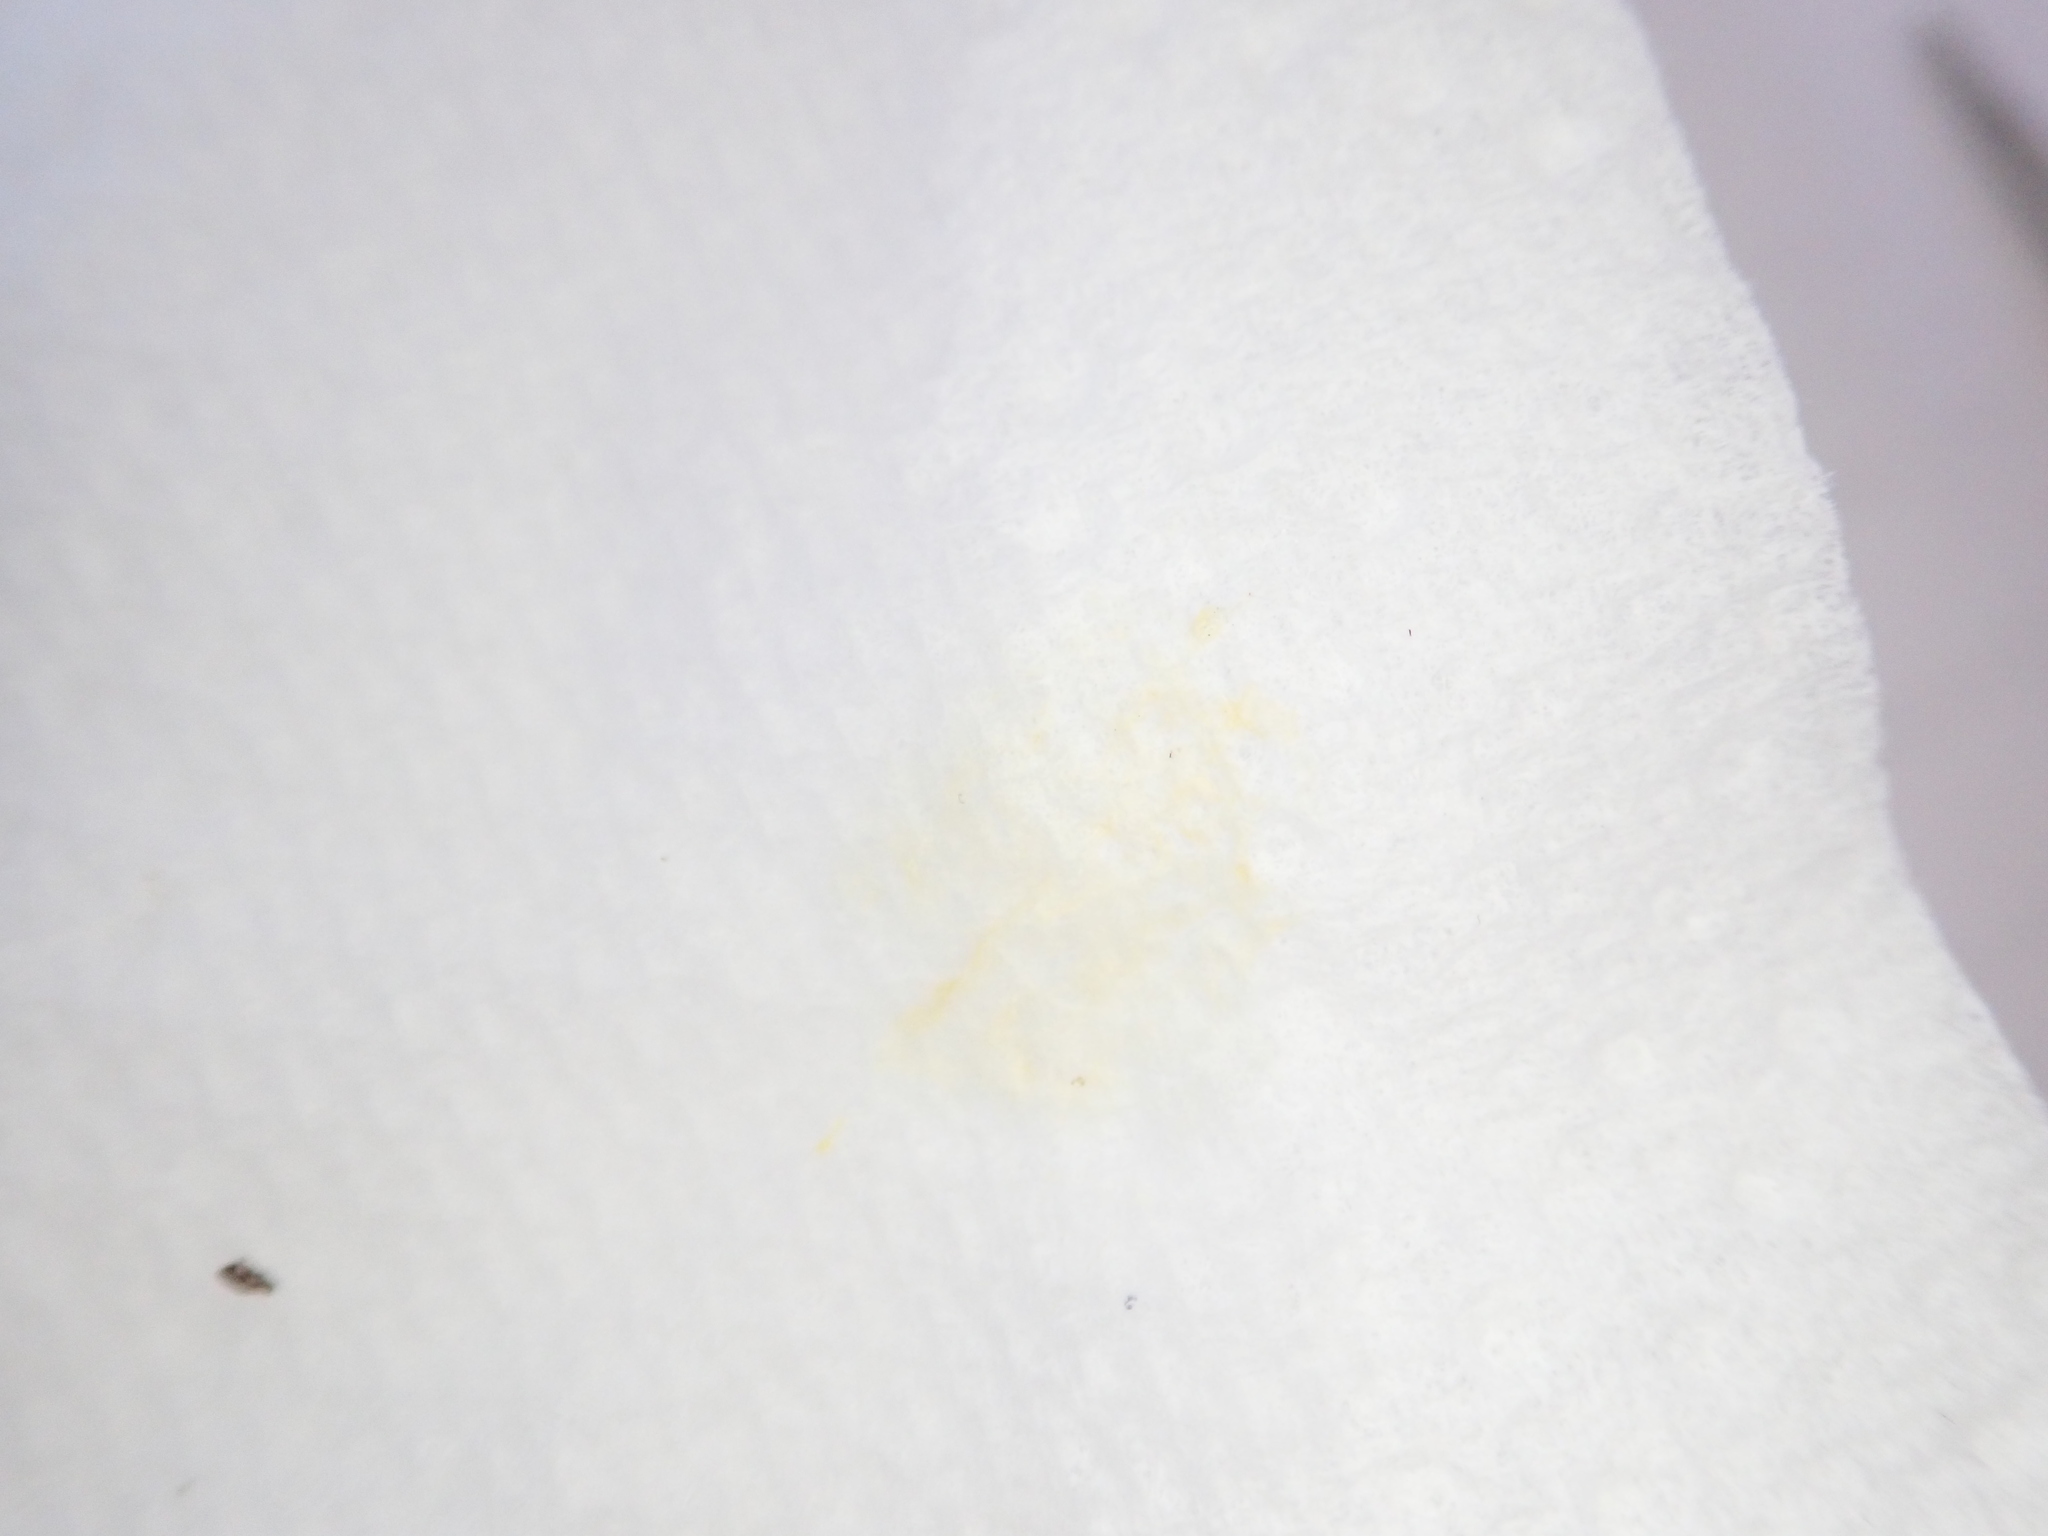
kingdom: Animalia
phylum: Mollusca
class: Gastropoda
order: Stylommatophora
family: Arionidae
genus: Arion
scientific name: Arion hortensis
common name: Garden arion
